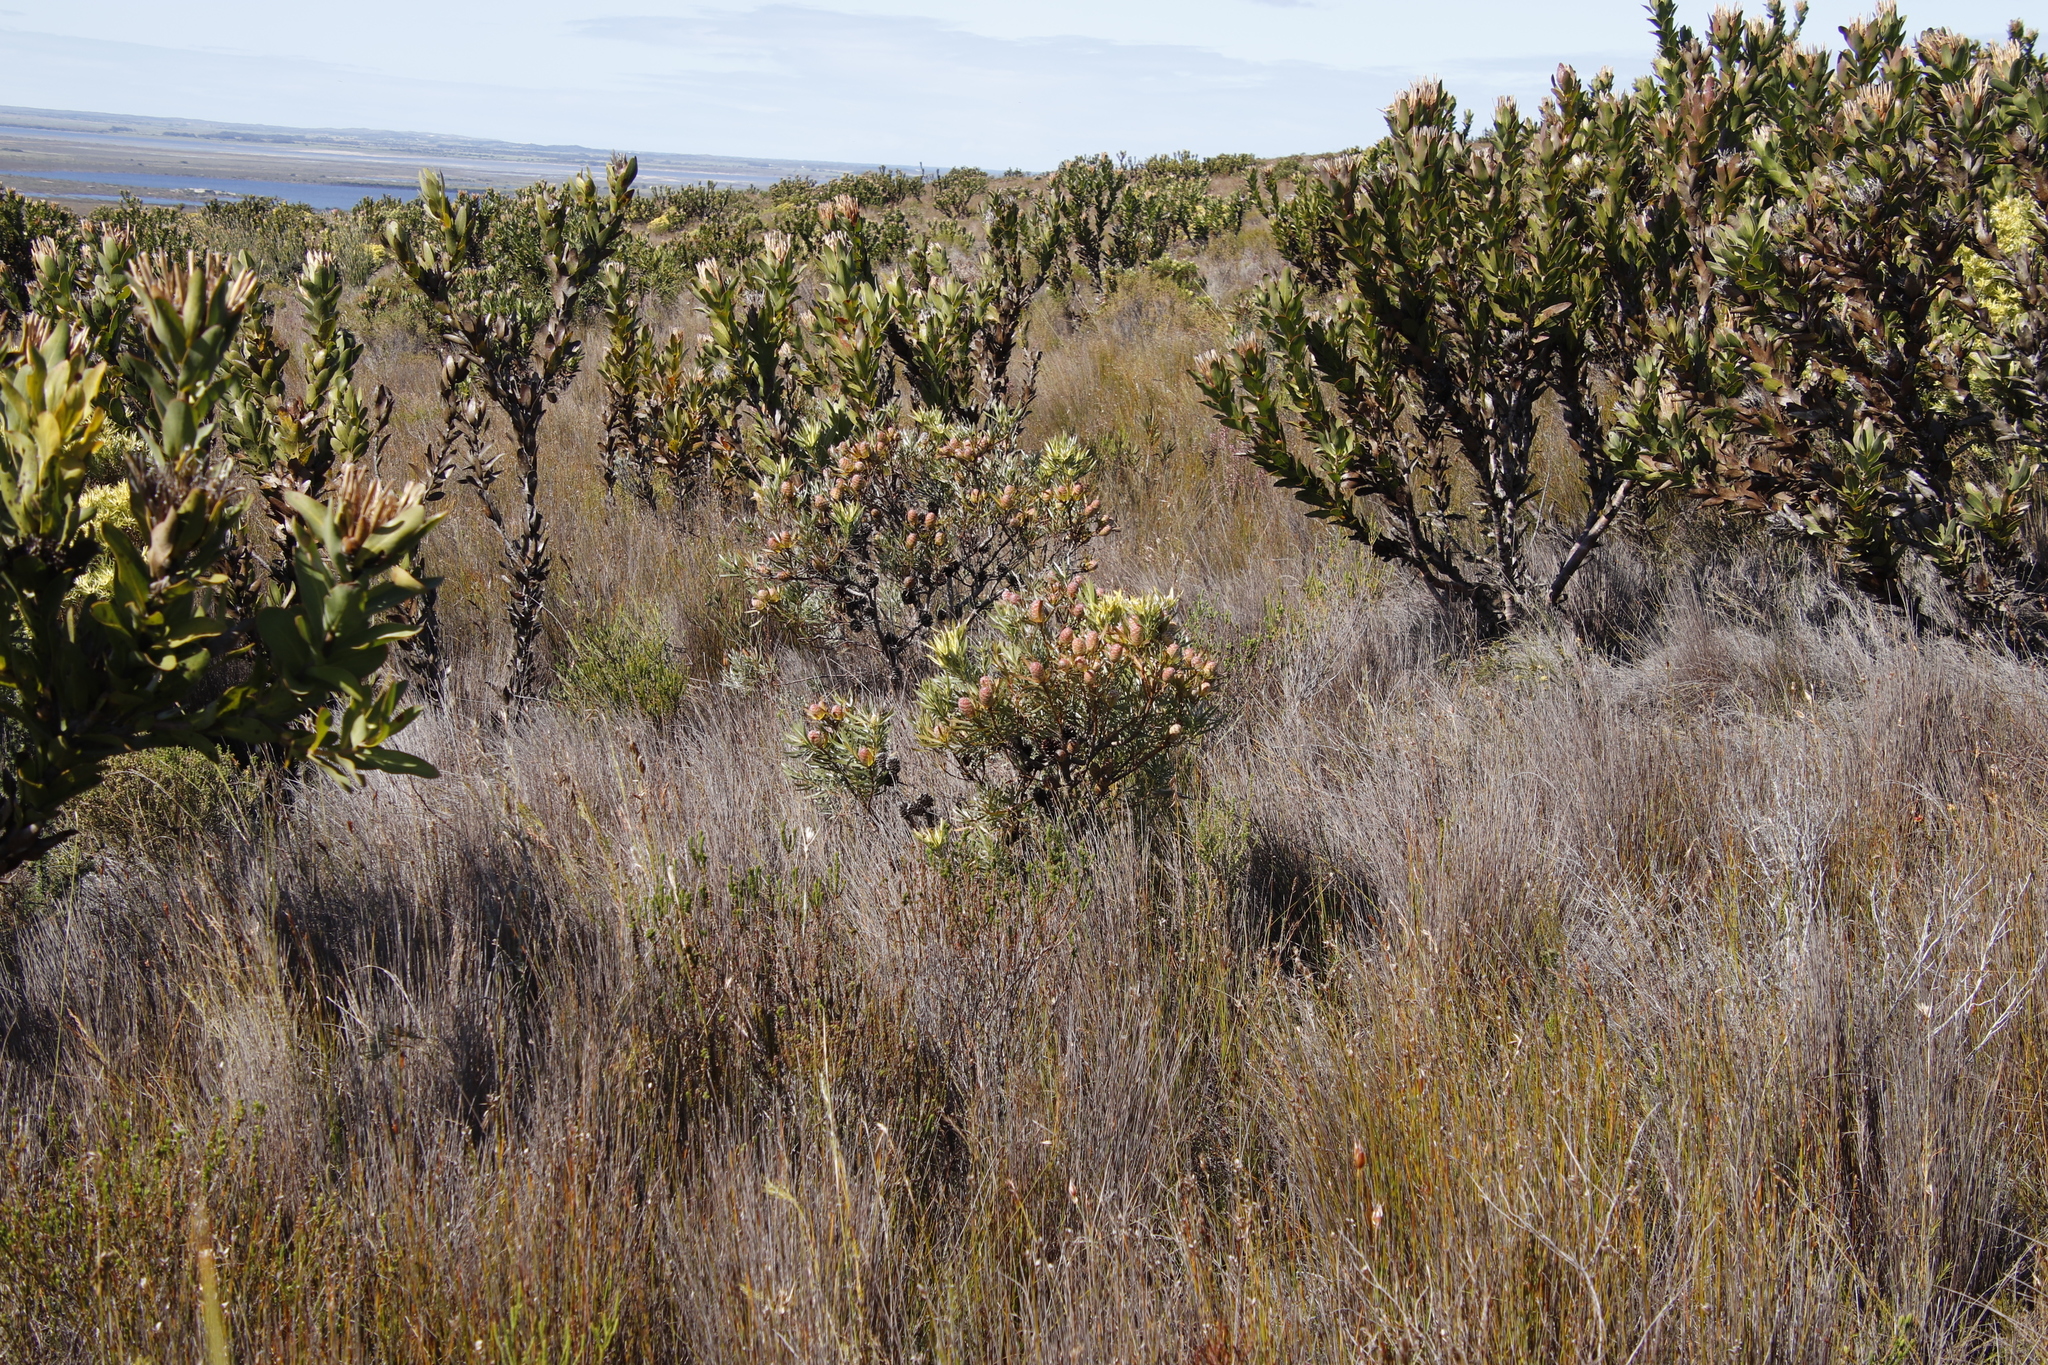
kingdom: Plantae
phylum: Tracheophyta
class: Magnoliopsida
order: Proteales
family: Proteaceae
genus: Leucadendron
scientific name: Leucadendron
